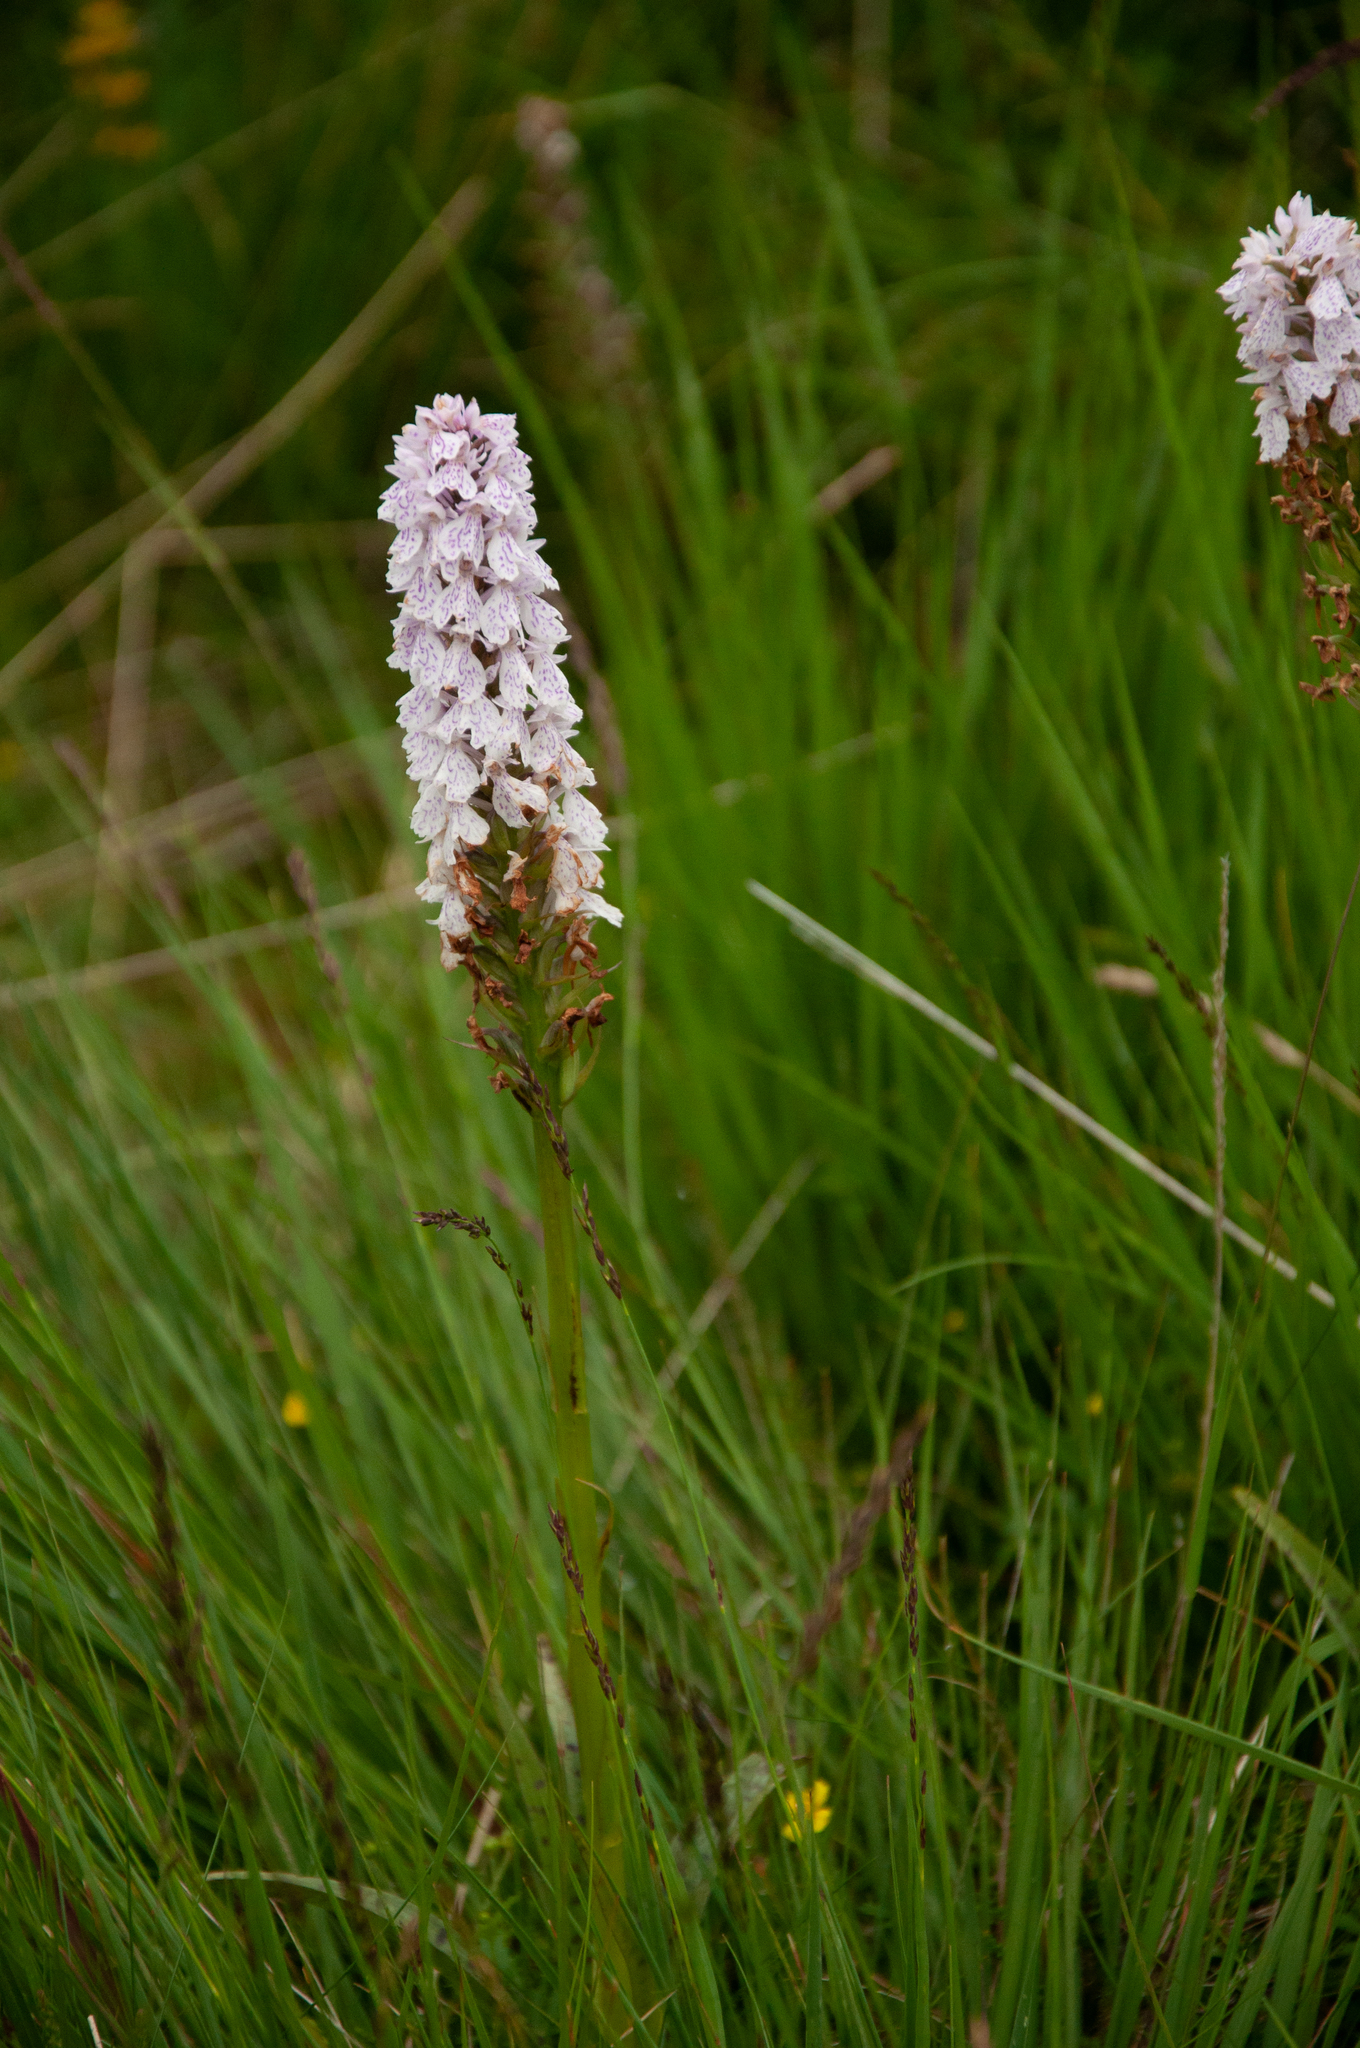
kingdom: Plantae
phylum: Tracheophyta
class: Liliopsida
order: Asparagales
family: Orchidaceae
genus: Dactylorhiza
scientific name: Dactylorhiza maculata
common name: Heath spotted-orchid
